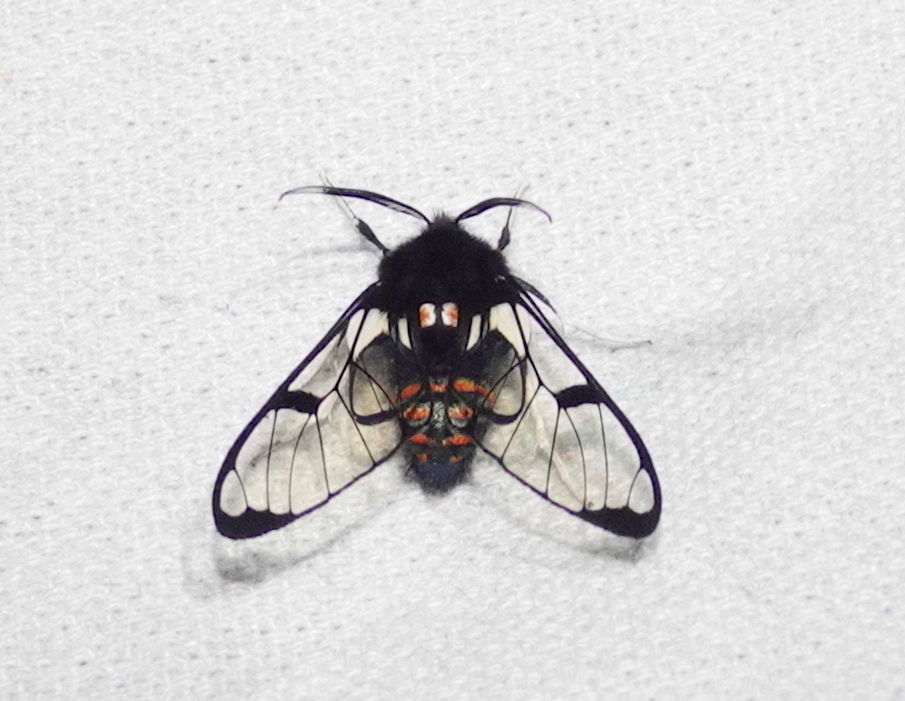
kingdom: Animalia
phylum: Arthropoda
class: Insecta
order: Lepidoptera
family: Erebidae
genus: Dasysphinx
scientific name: Dasysphinx buckleyi
